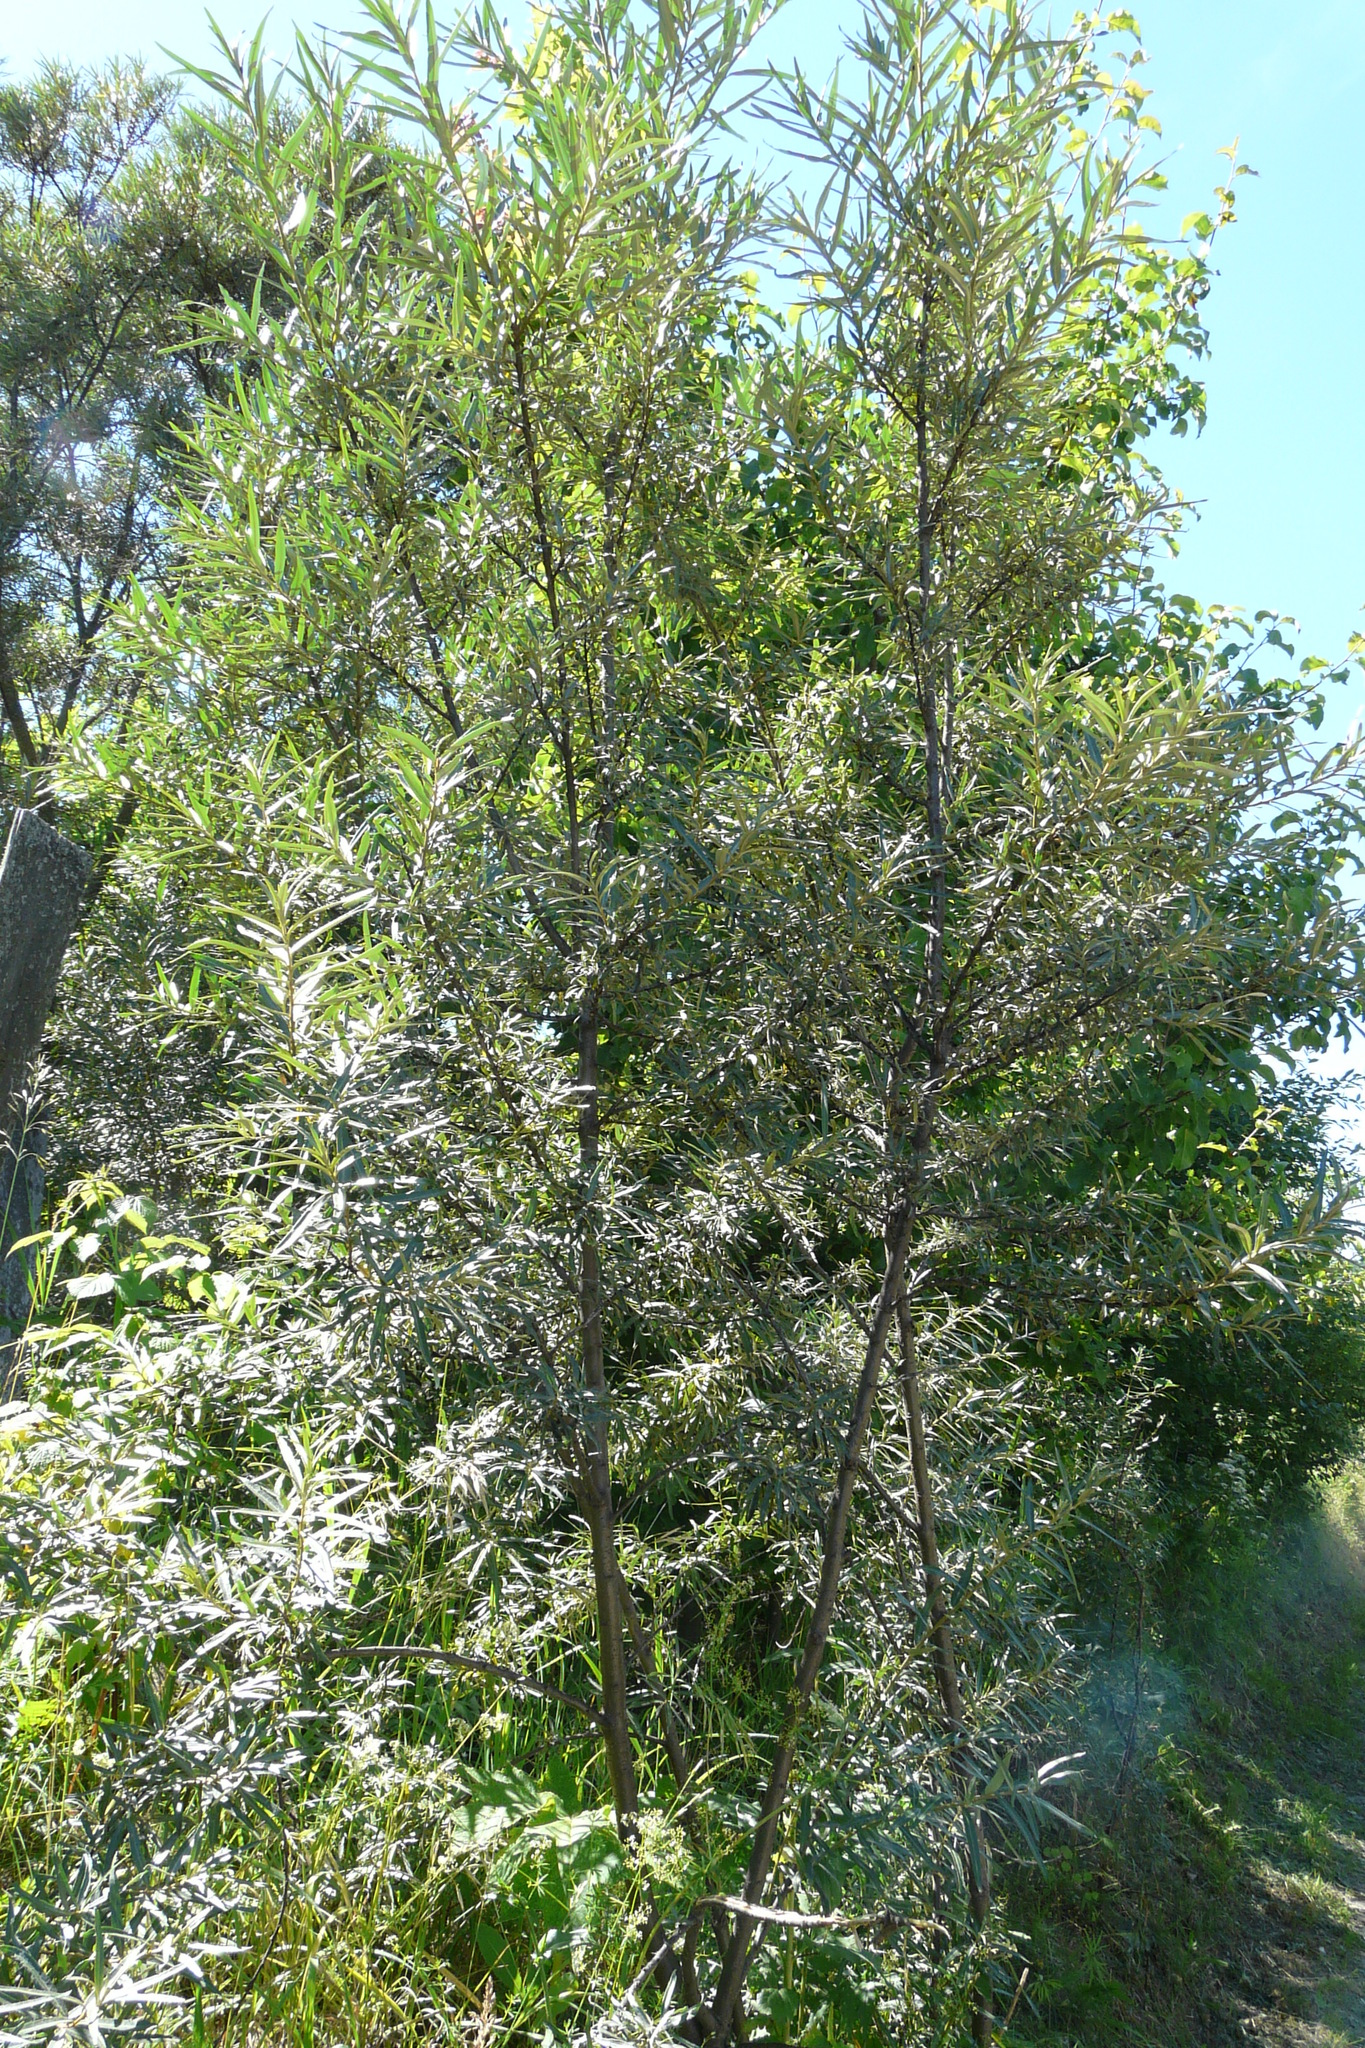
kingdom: Plantae
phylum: Tracheophyta
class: Magnoliopsida
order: Rosales
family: Elaeagnaceae
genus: Hippophae
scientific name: Hippophae rhamnoides
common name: Sea-buckthorn
